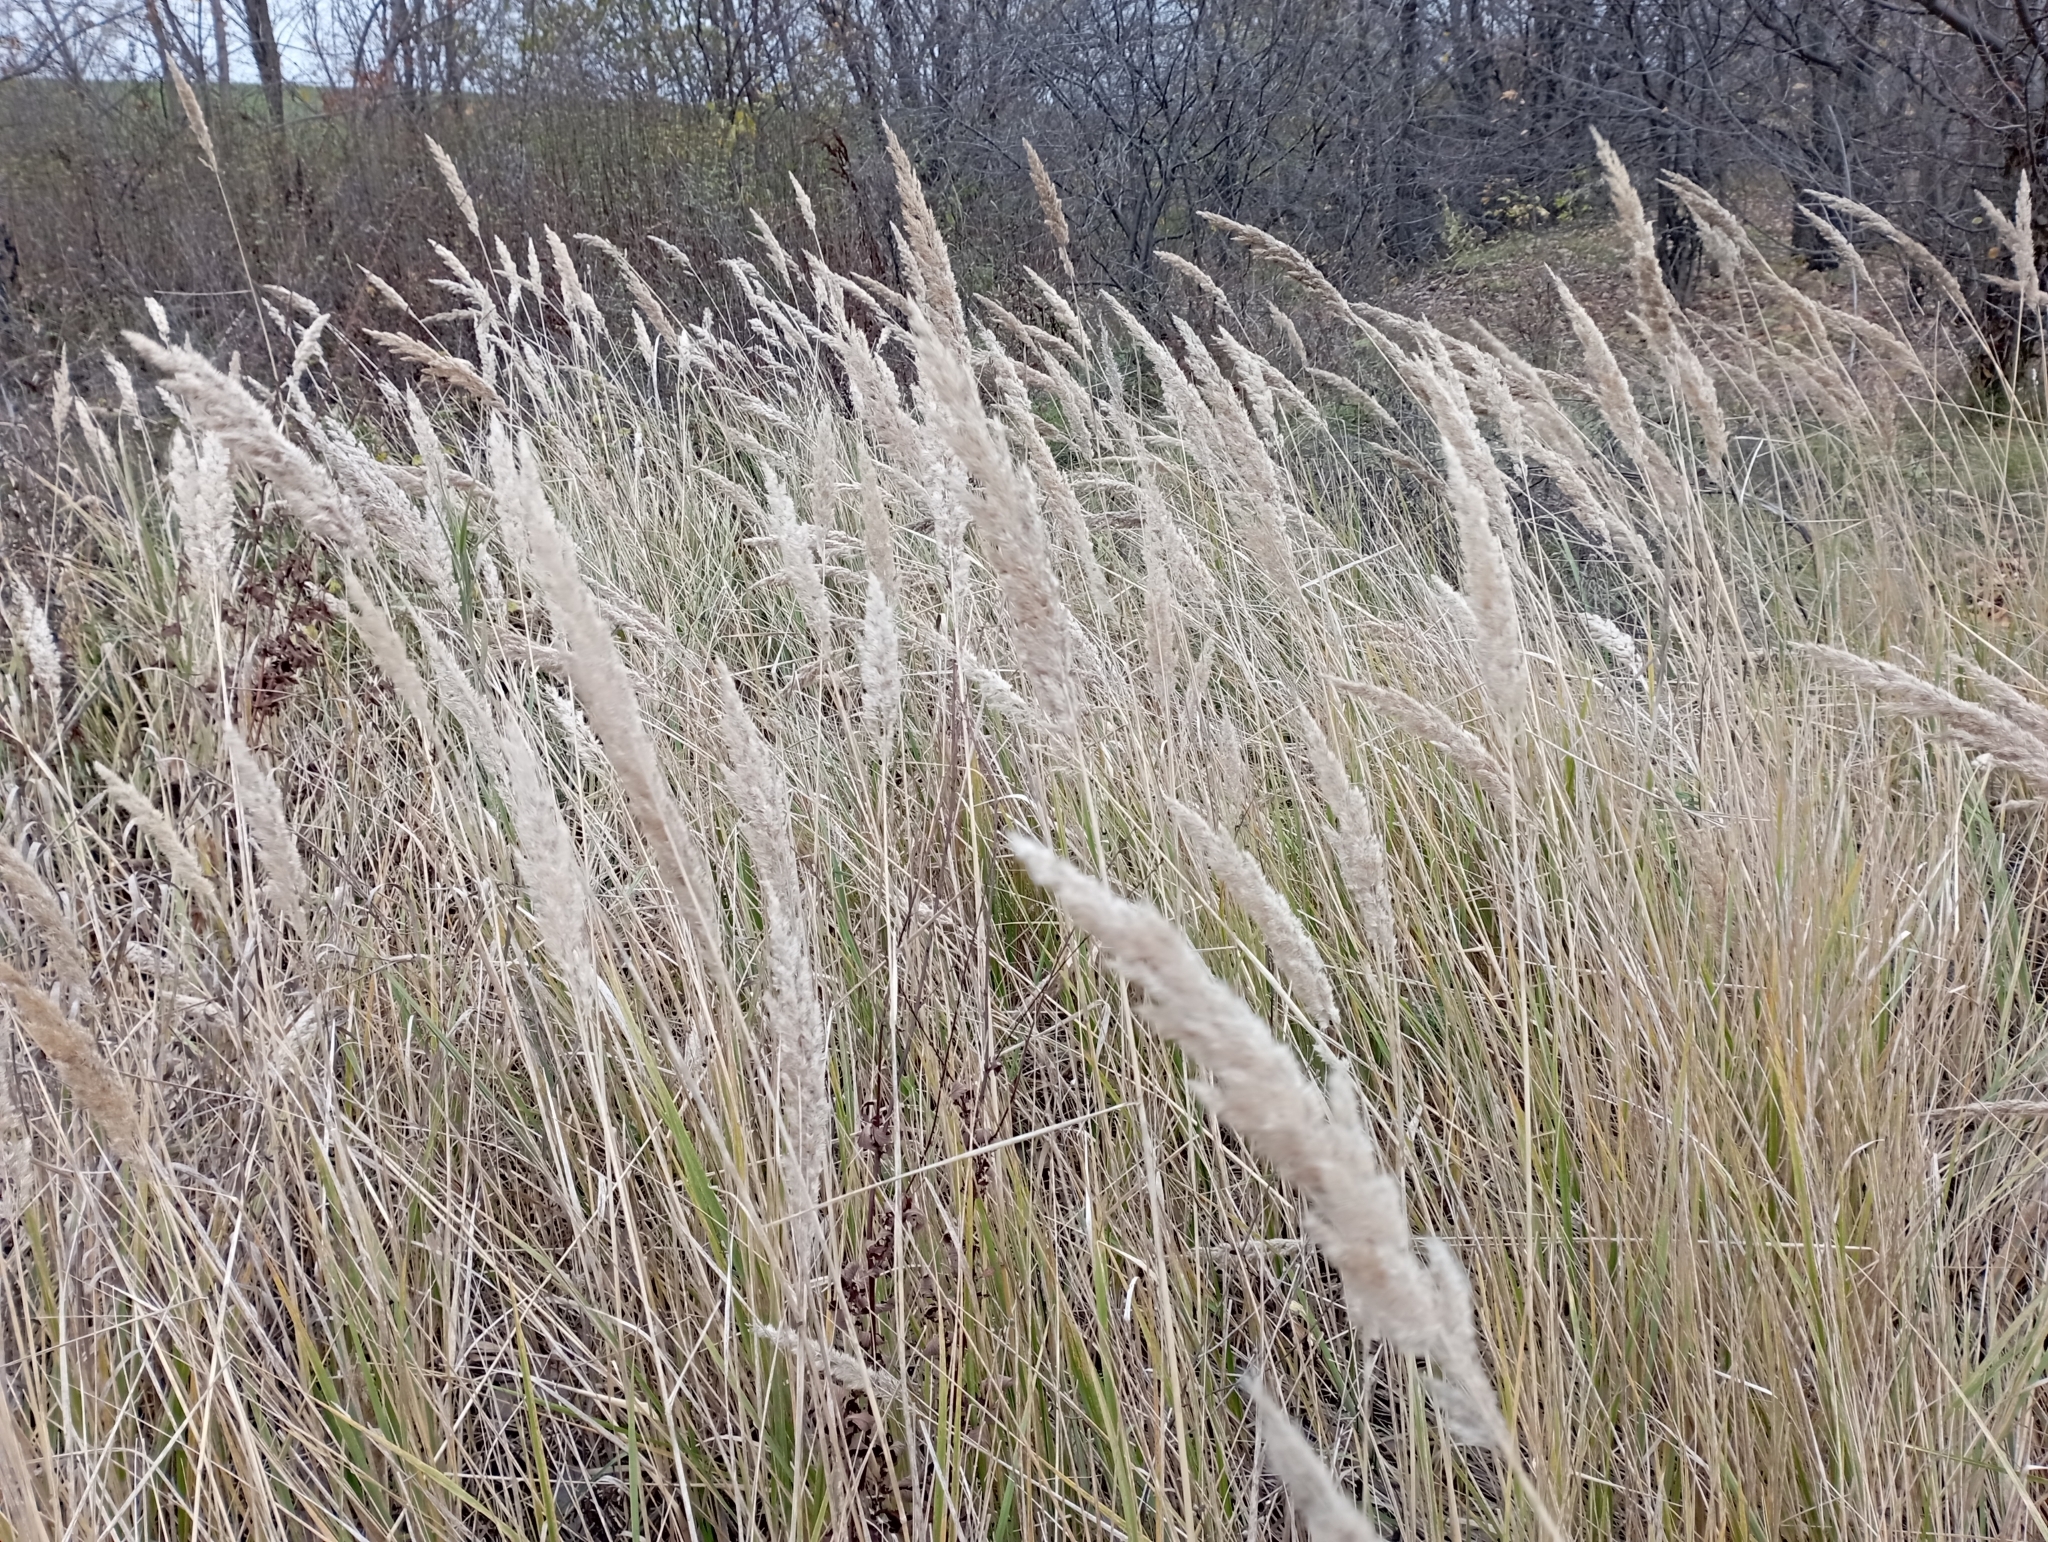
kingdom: Plantae
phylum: Tracheophyta
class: Liliopsida
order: Poales
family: Poaceae
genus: Calamagrostis
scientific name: Calamagrostis epigejos
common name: Wood small-reed
